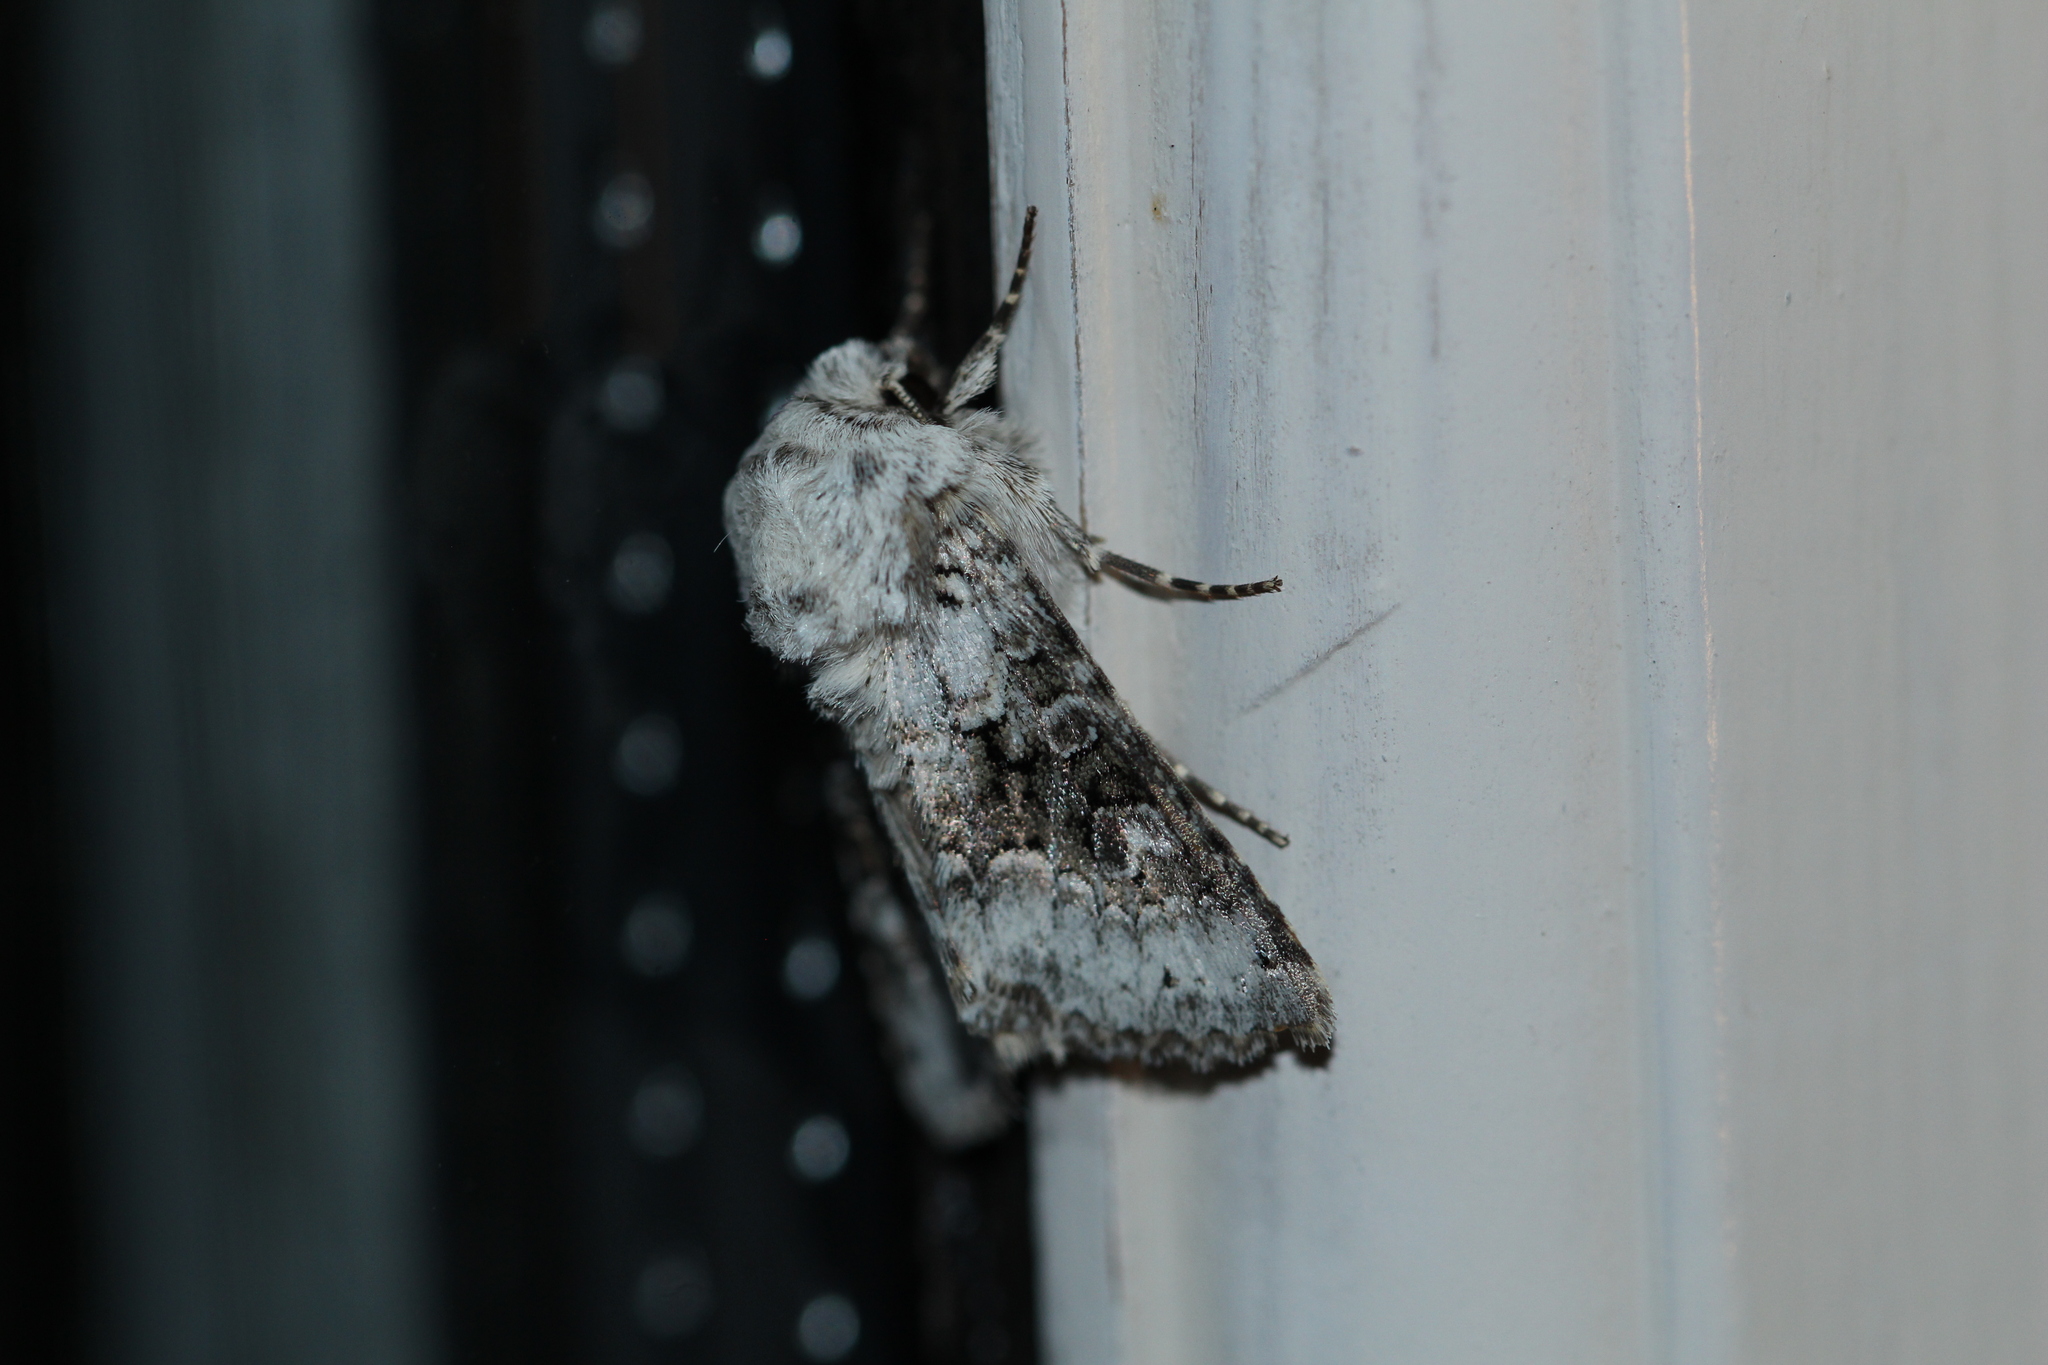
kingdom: Animalia
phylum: Arthropoda
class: Insecta
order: Lepidoptera
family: Noctuidae
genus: Hecatera
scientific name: Hecatera bicolorata
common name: Broad-barred white
